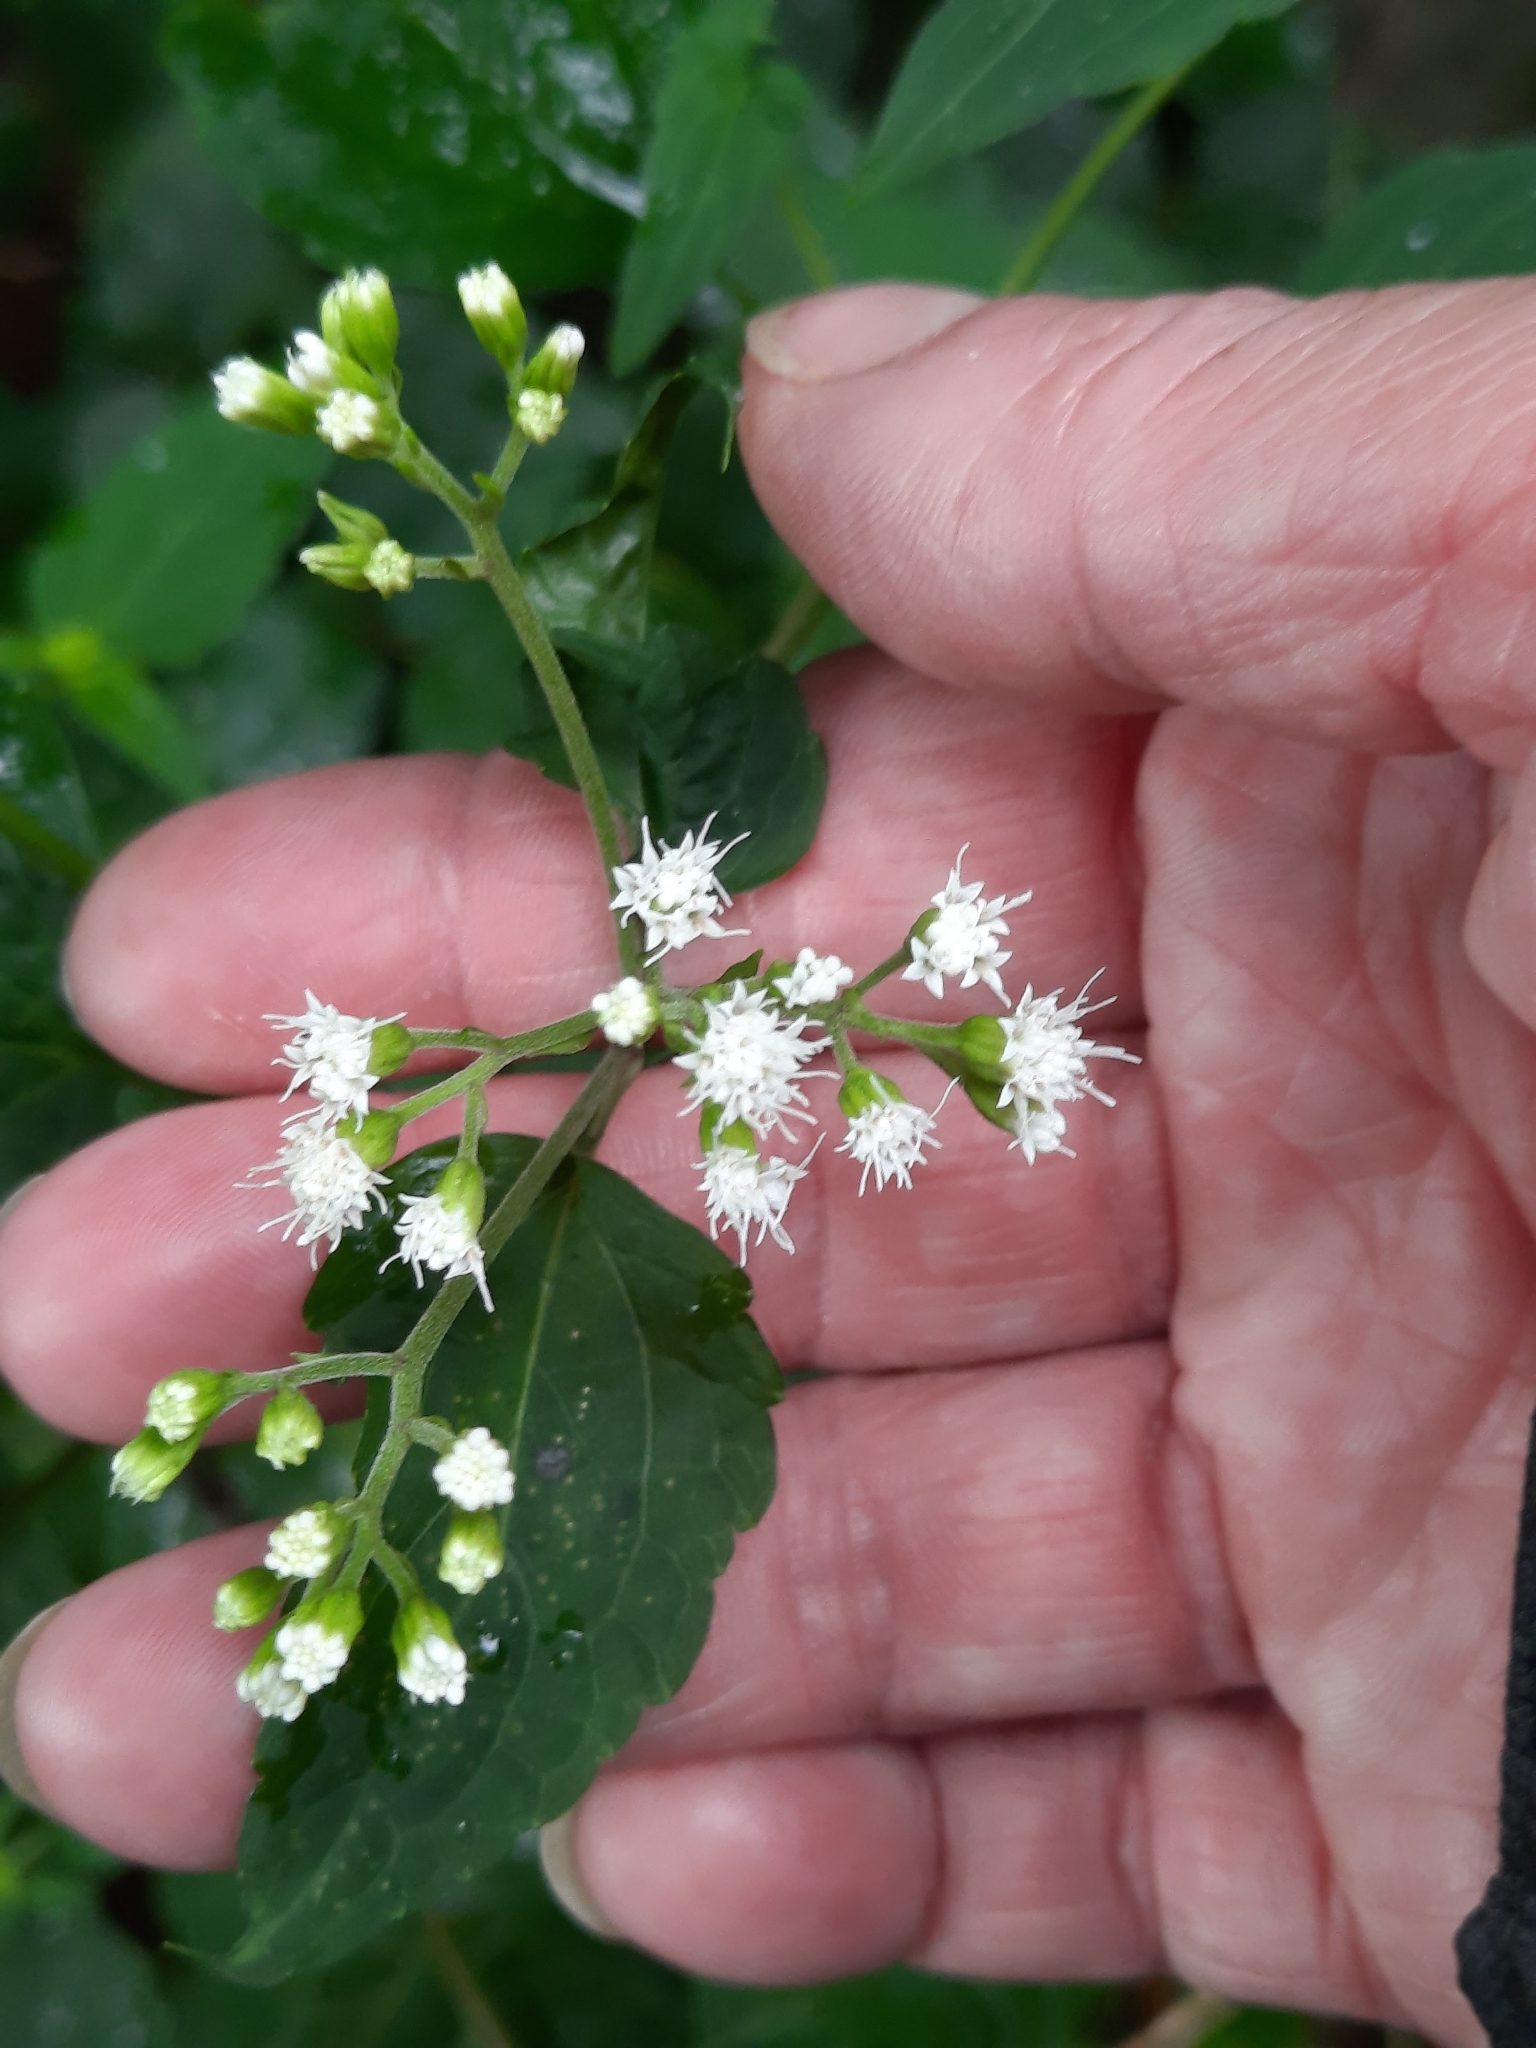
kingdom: Plantae
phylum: Tracheophyta
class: Magnoliopsida
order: Asterales
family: Asteraceae
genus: Ageratina
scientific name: Ageratina altissima
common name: White snakeroot
